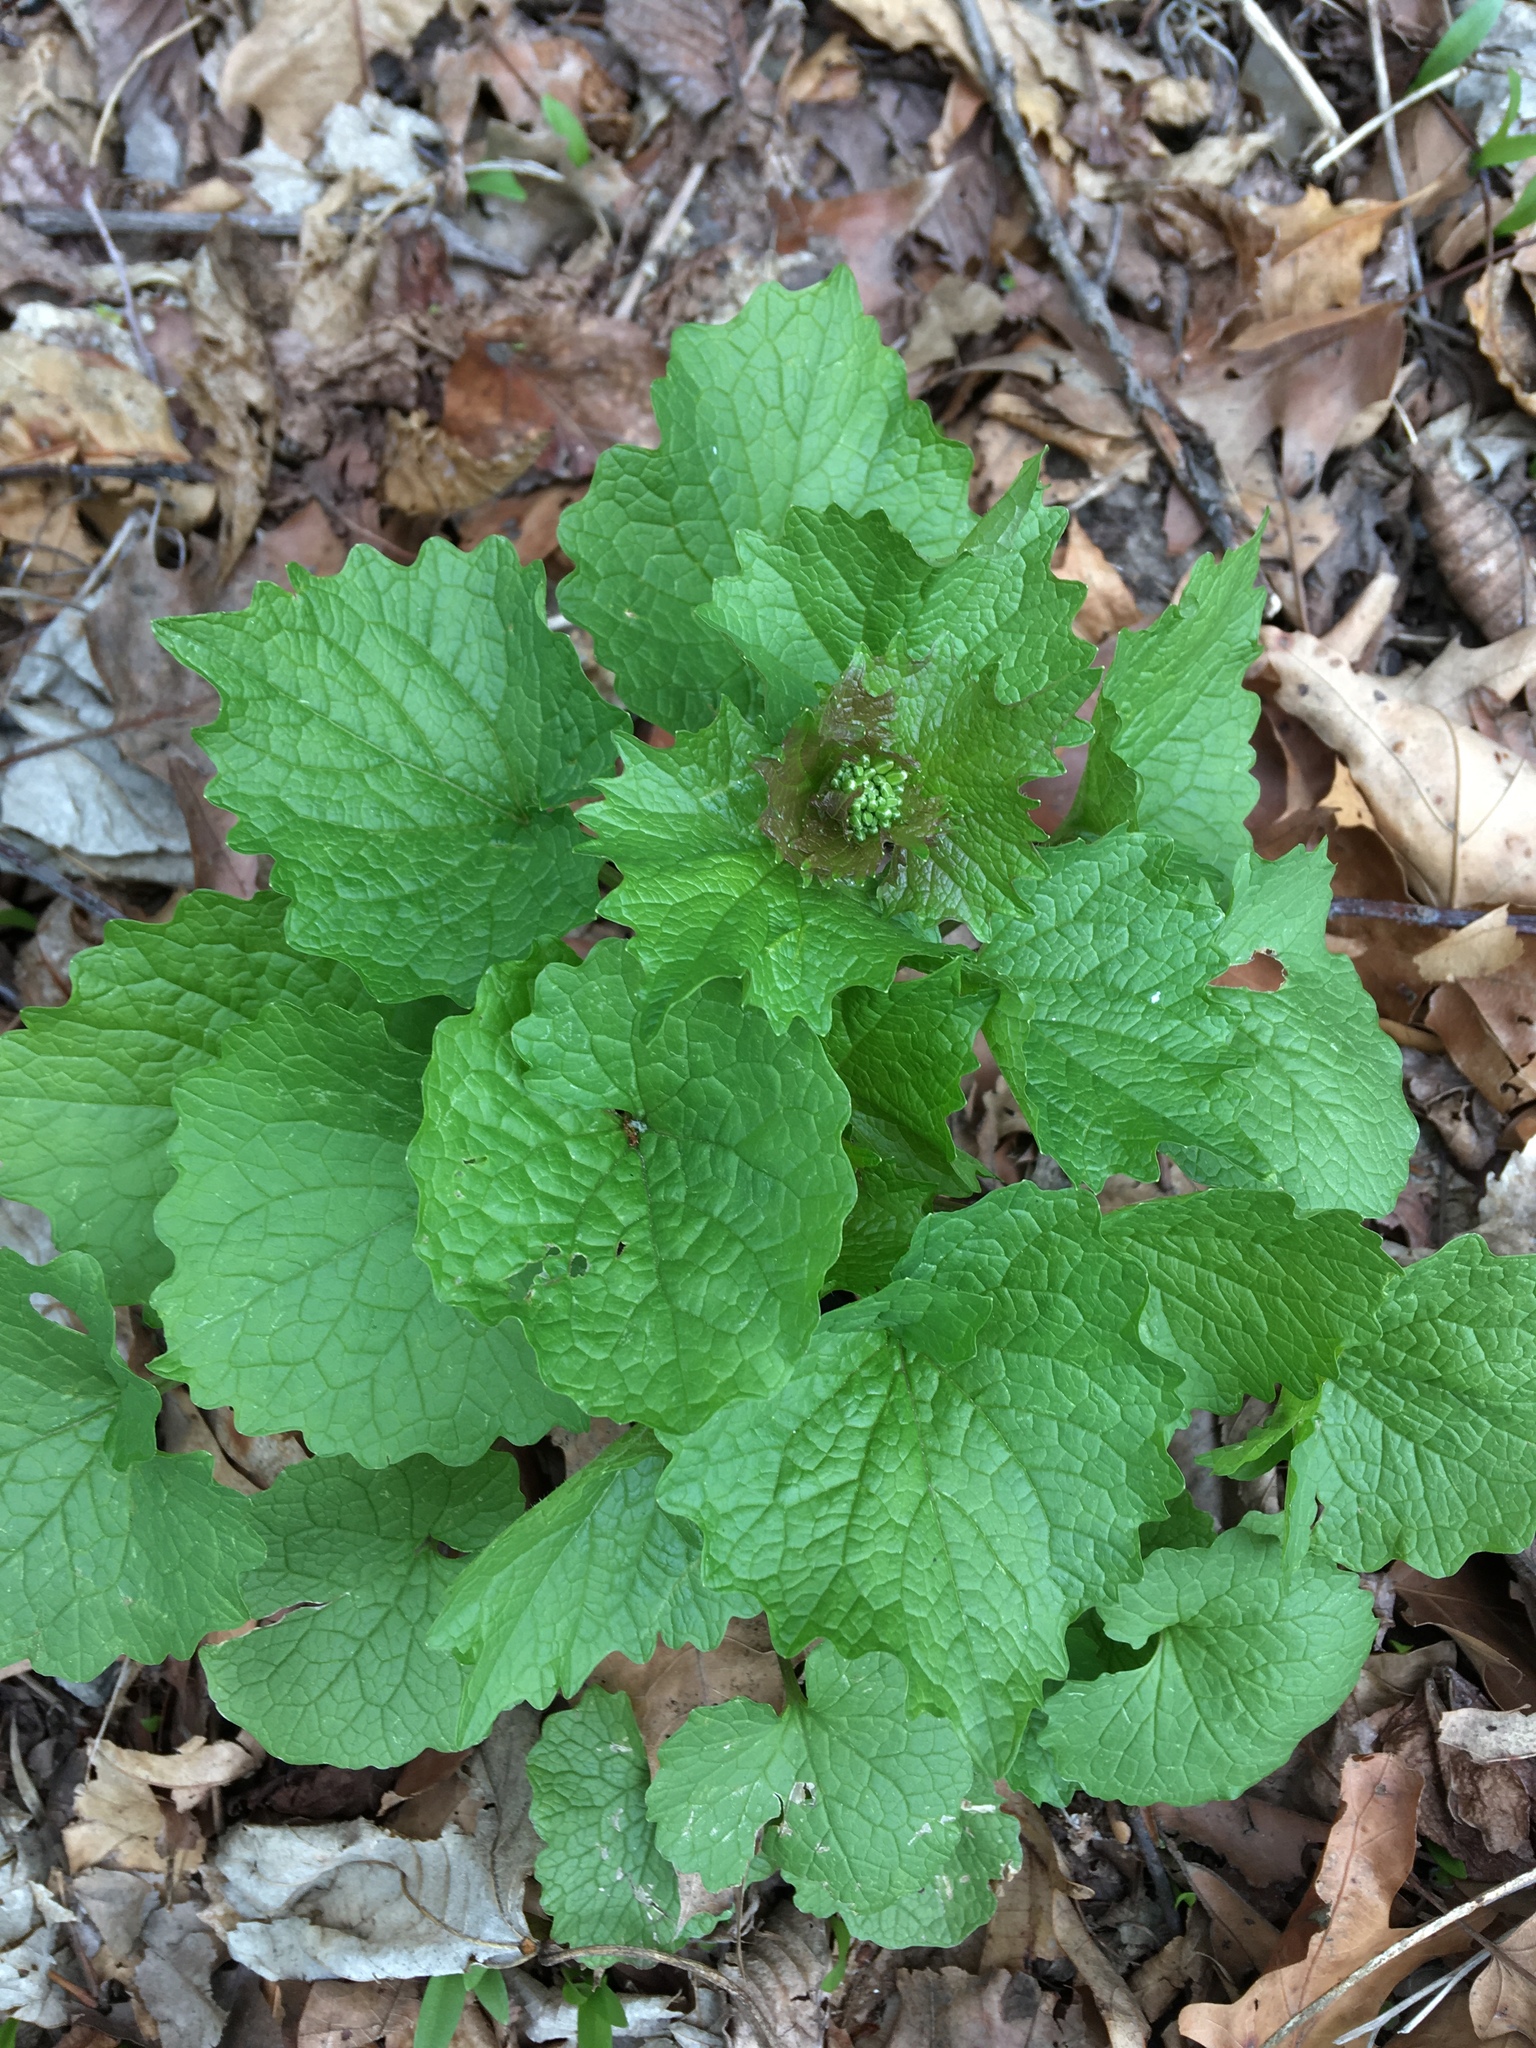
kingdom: Plantae
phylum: Tracheophyta
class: Magnoliopsida
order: Brassicales
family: Brassicaceae
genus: Alliaria
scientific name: Alliaria petiolata
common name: Garlic mustard
